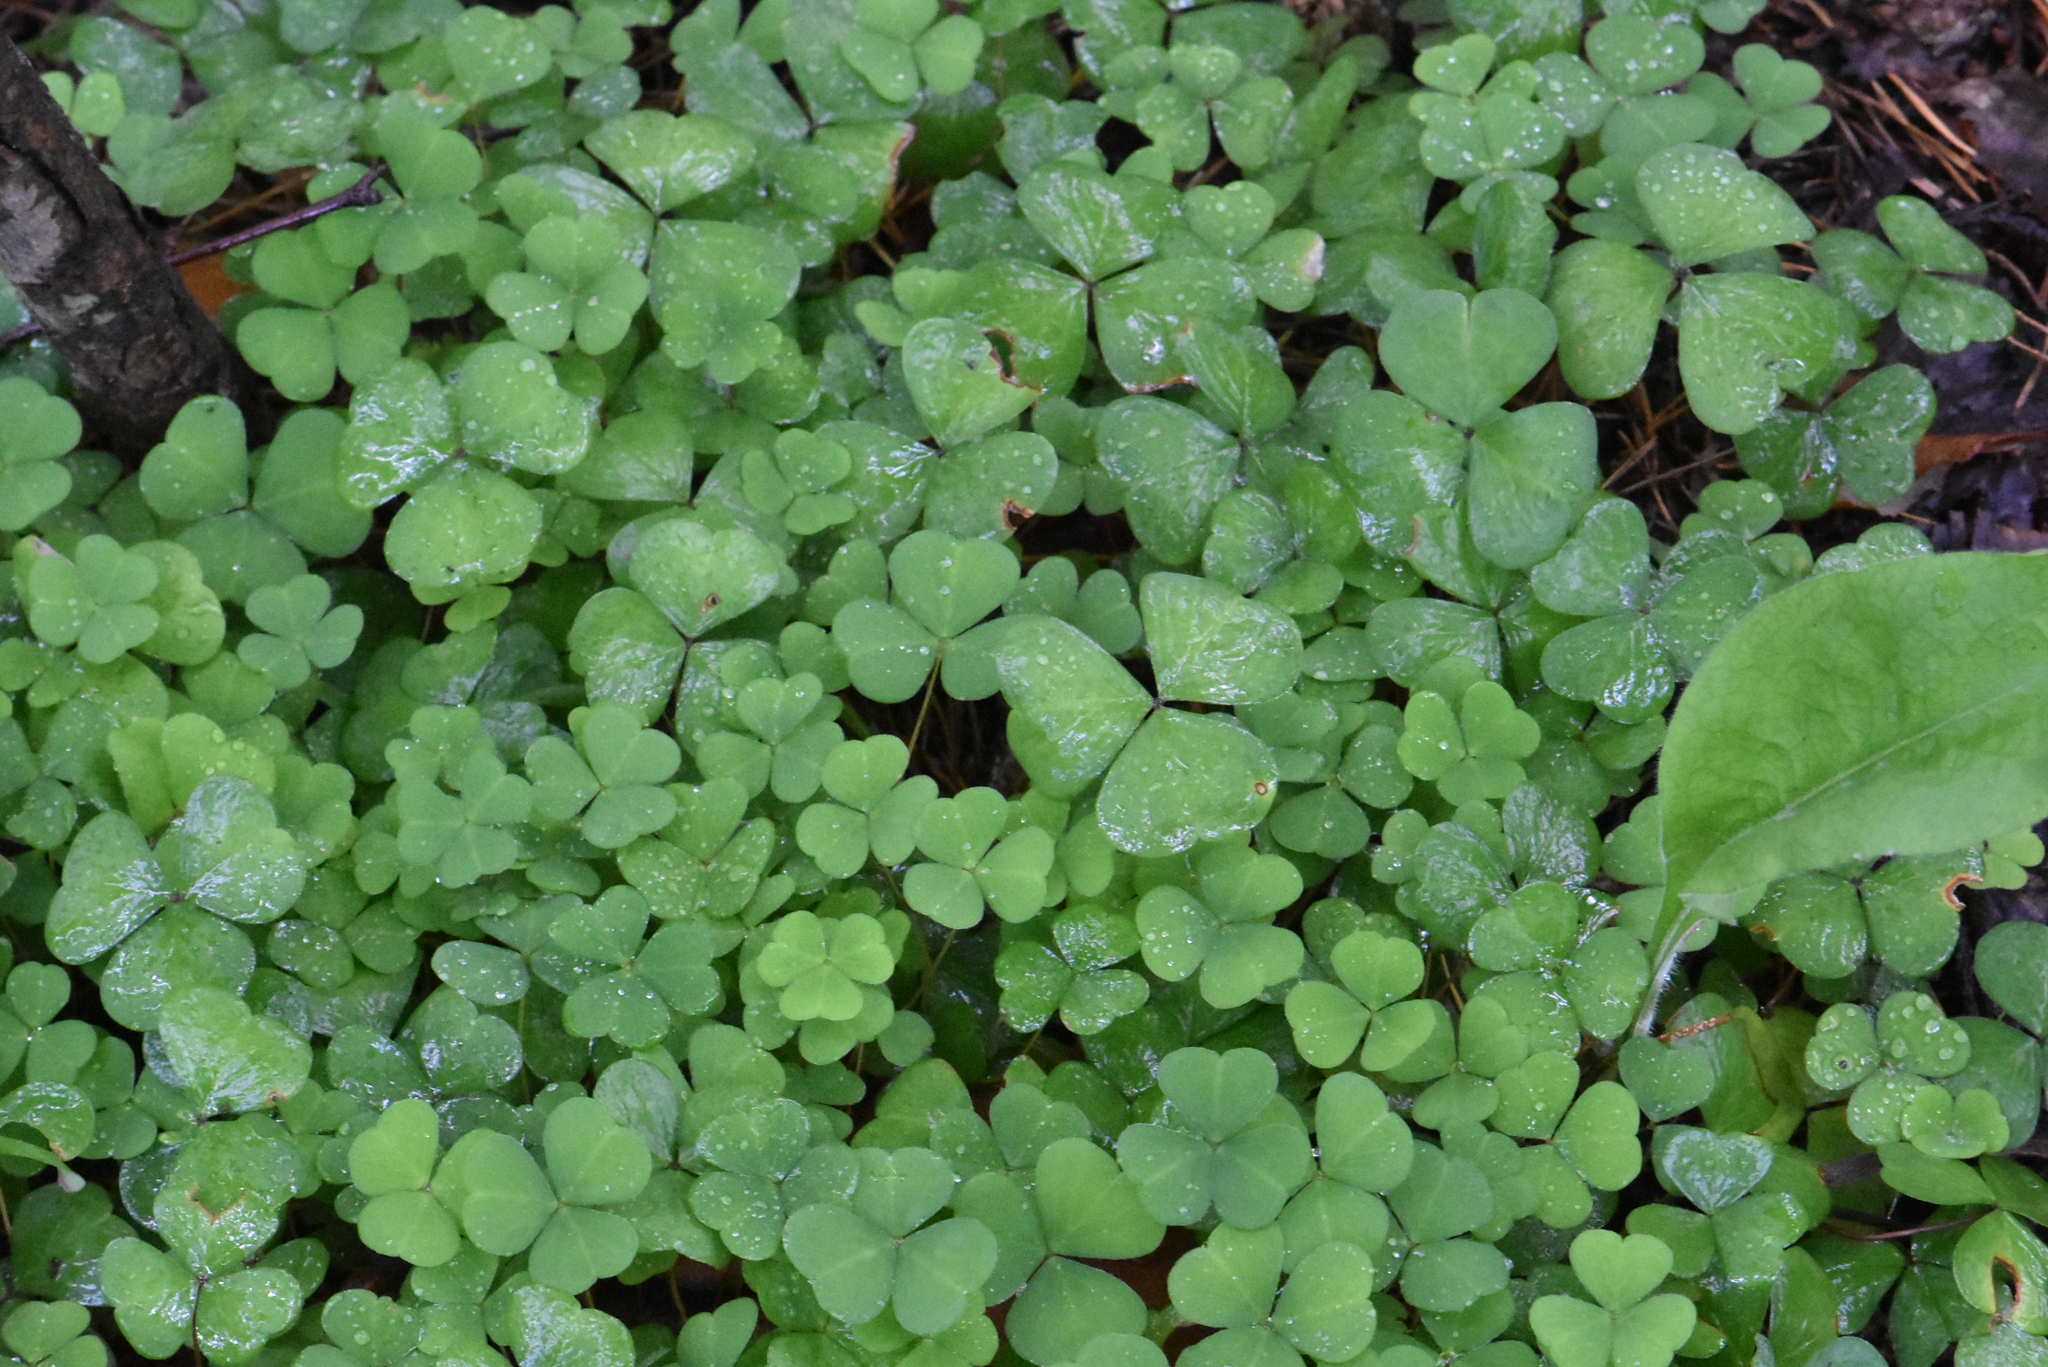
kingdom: Plantae
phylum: Tracheophyta
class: Magnoliopsida
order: Oxalidales
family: Oxalidaceae
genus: Oxalis
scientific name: Oxalis acetosella
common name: Wood-sorrel
